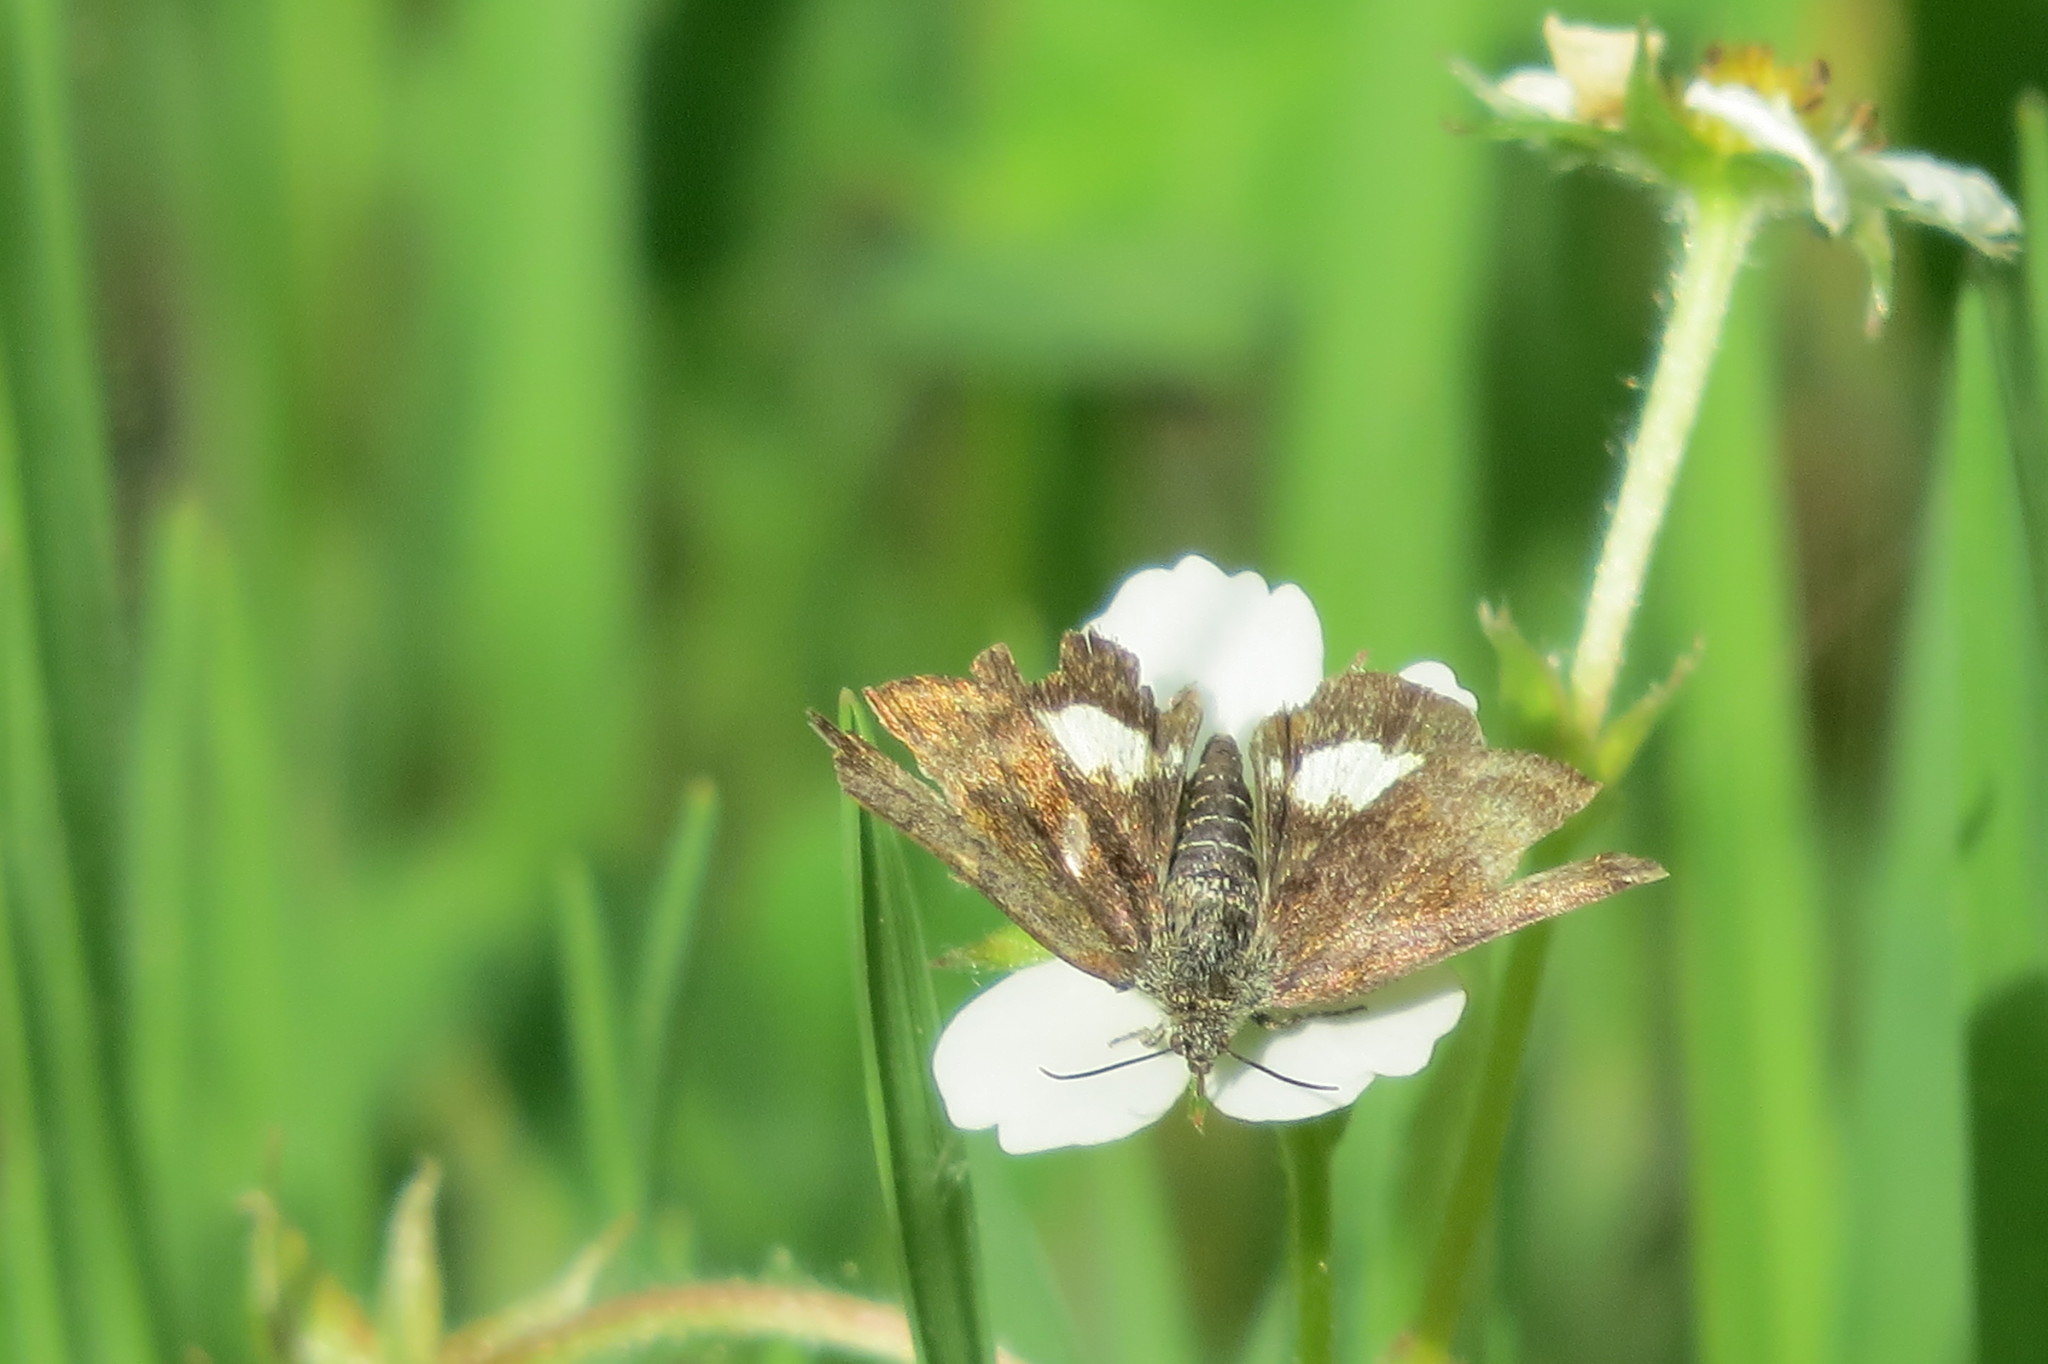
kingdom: Animalia
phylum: Arthropoda
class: Insecta
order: Lepidoptera
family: Noctuidae
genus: Panemeria
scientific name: Panemeria tenebrata
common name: Small yellow underwing
